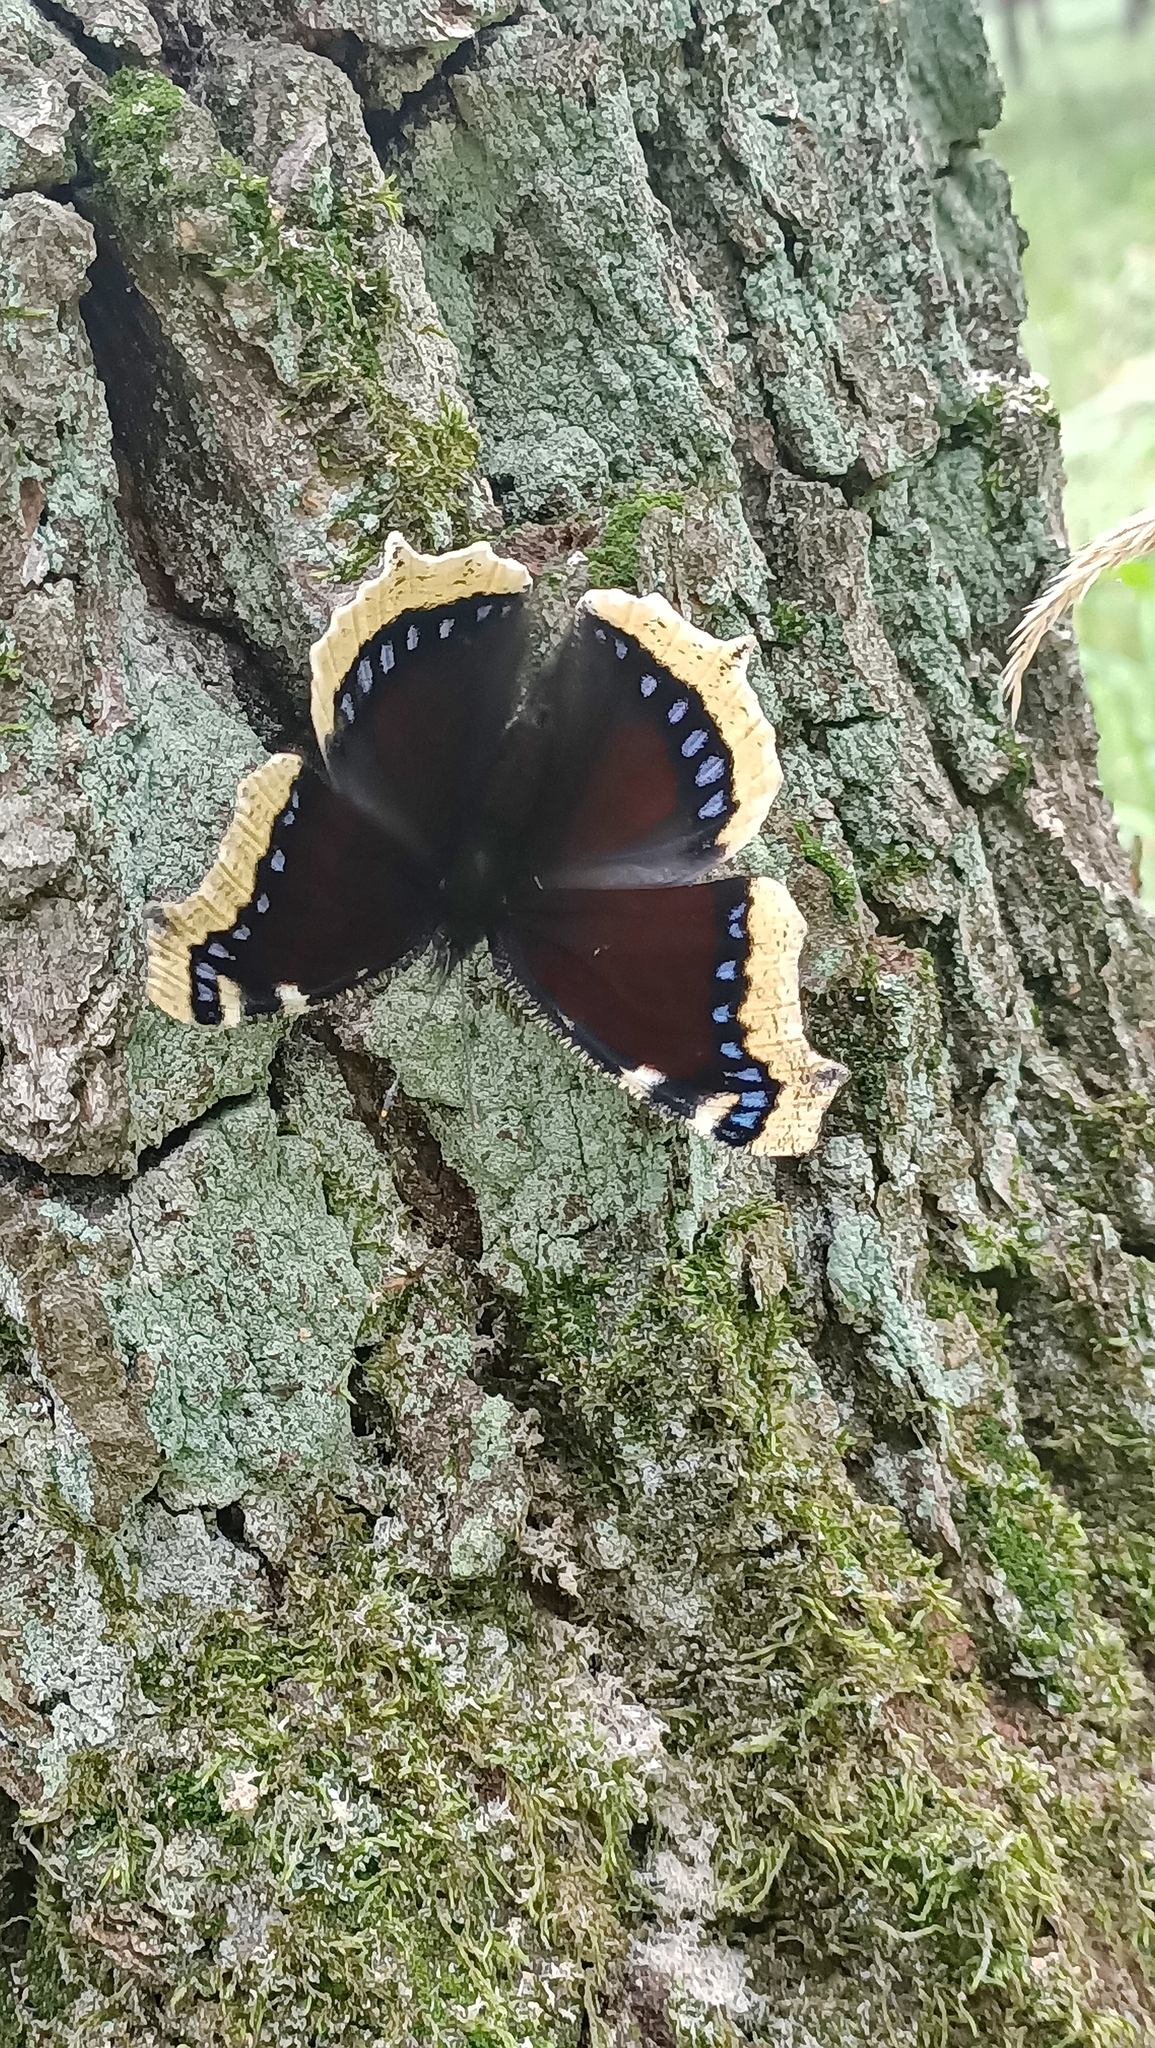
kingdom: Animalia
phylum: Arthropoda
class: Insecta
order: Lepidoptera
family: Nymphalidae
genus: Nymphalis
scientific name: Nymphalis antiopa
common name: Camberwell beauty
